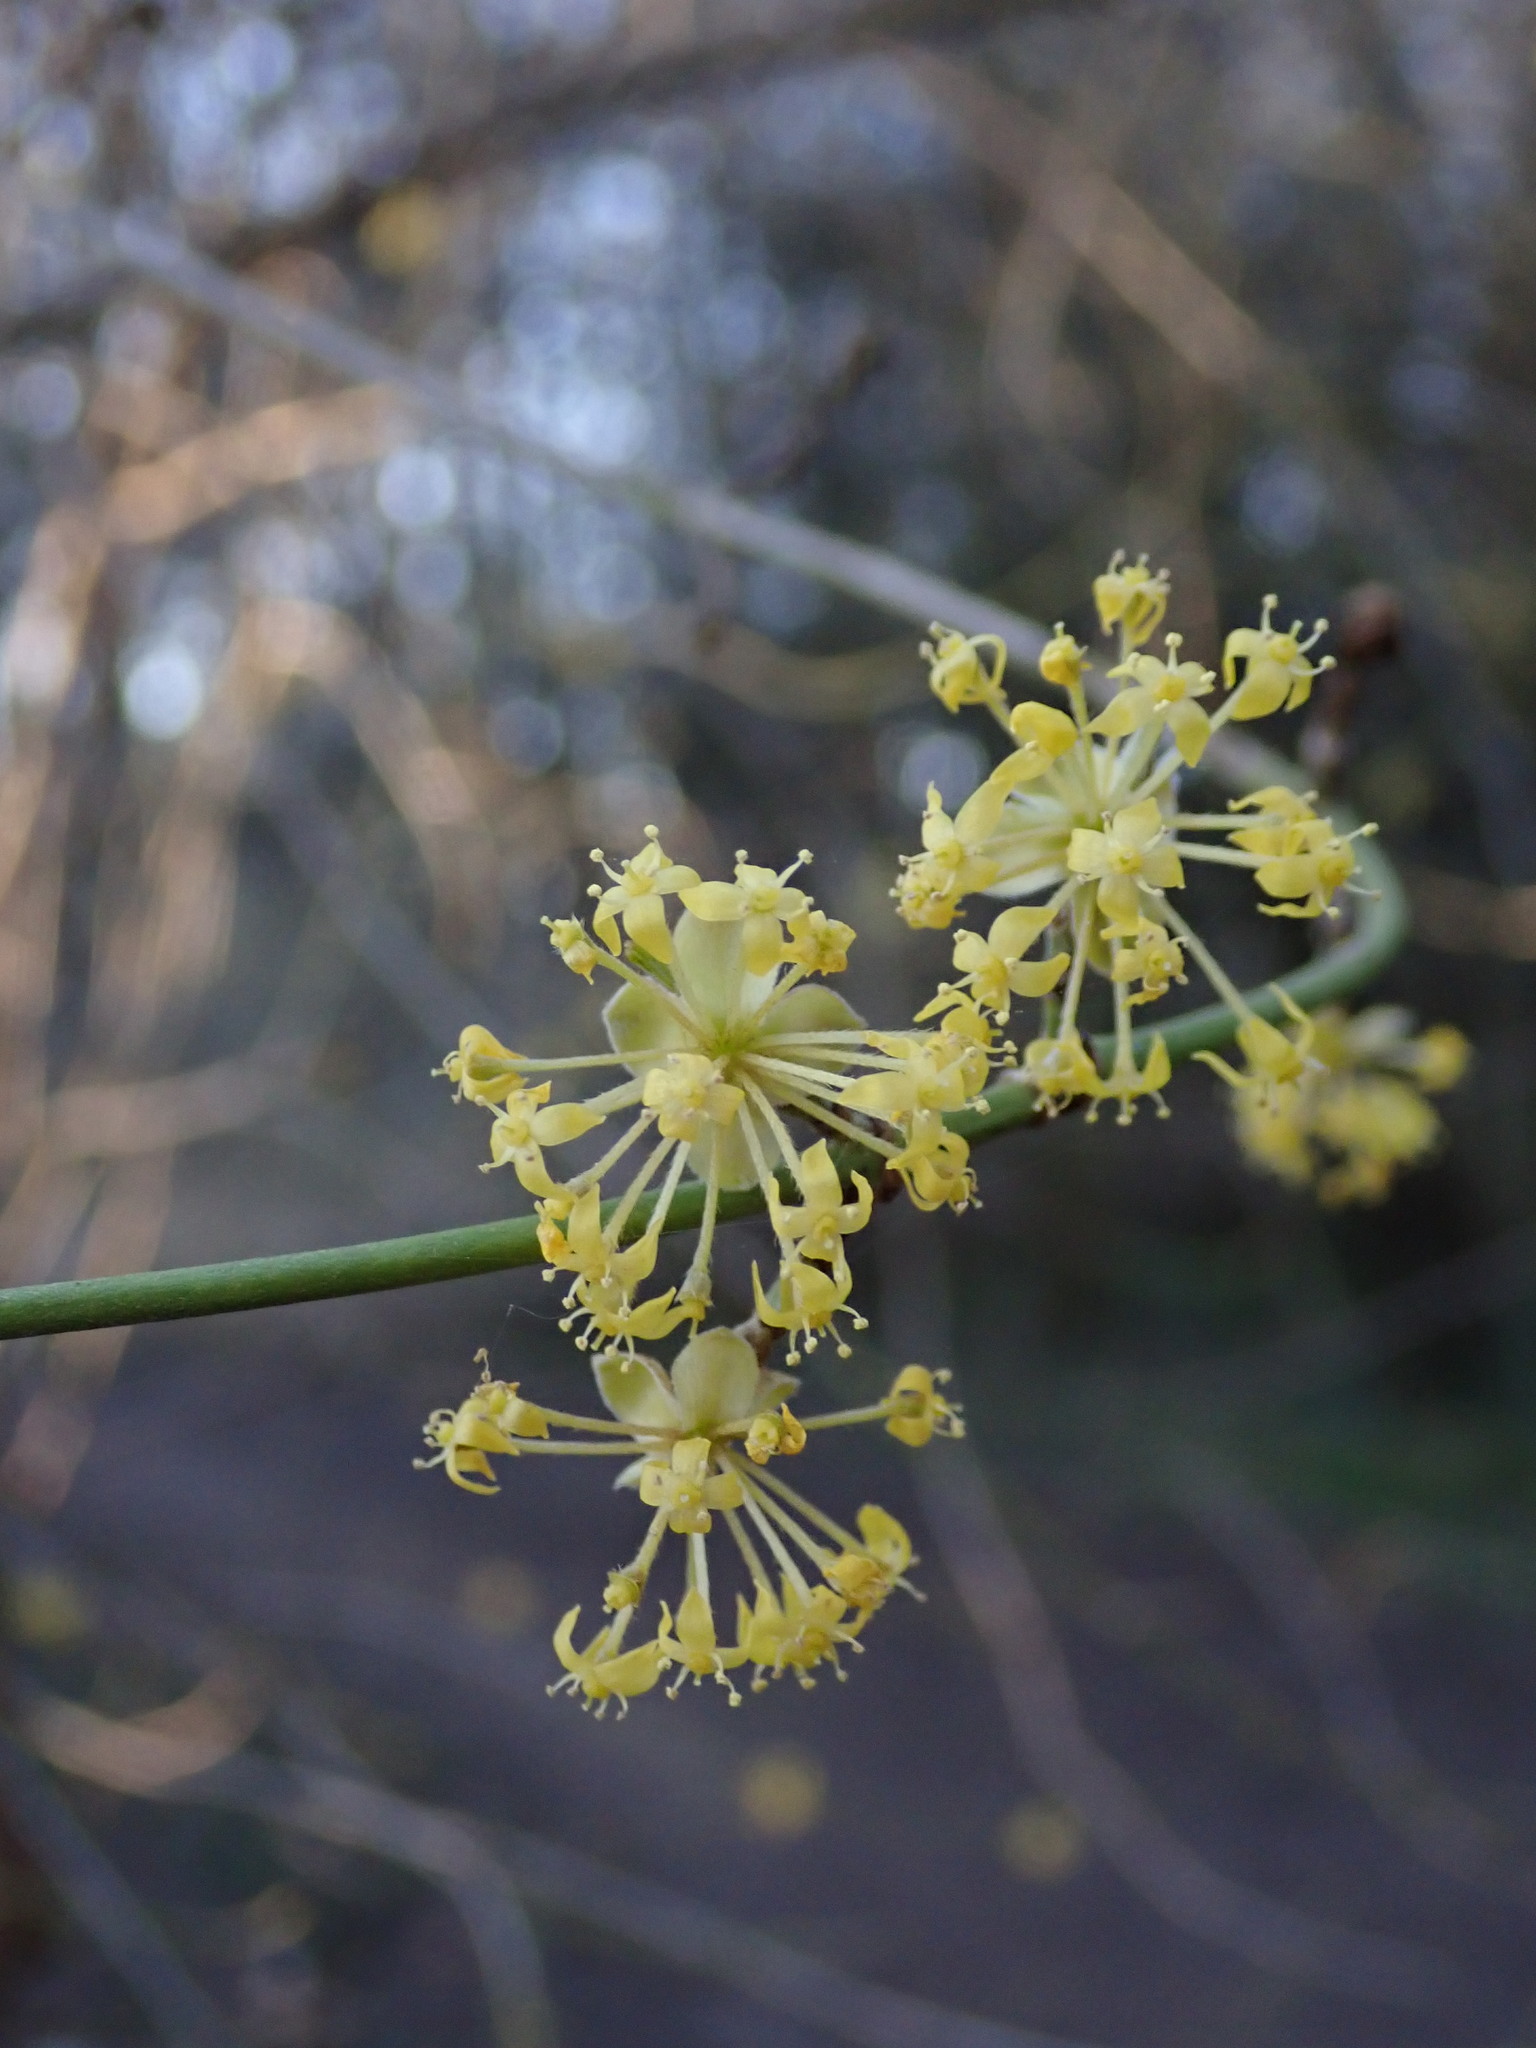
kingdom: Plantae
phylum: Tracheophyta
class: Magnoliopsida
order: Cornales
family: Cornaceae
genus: Cornus
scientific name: Cornus mas
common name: Cornelian-cherry
